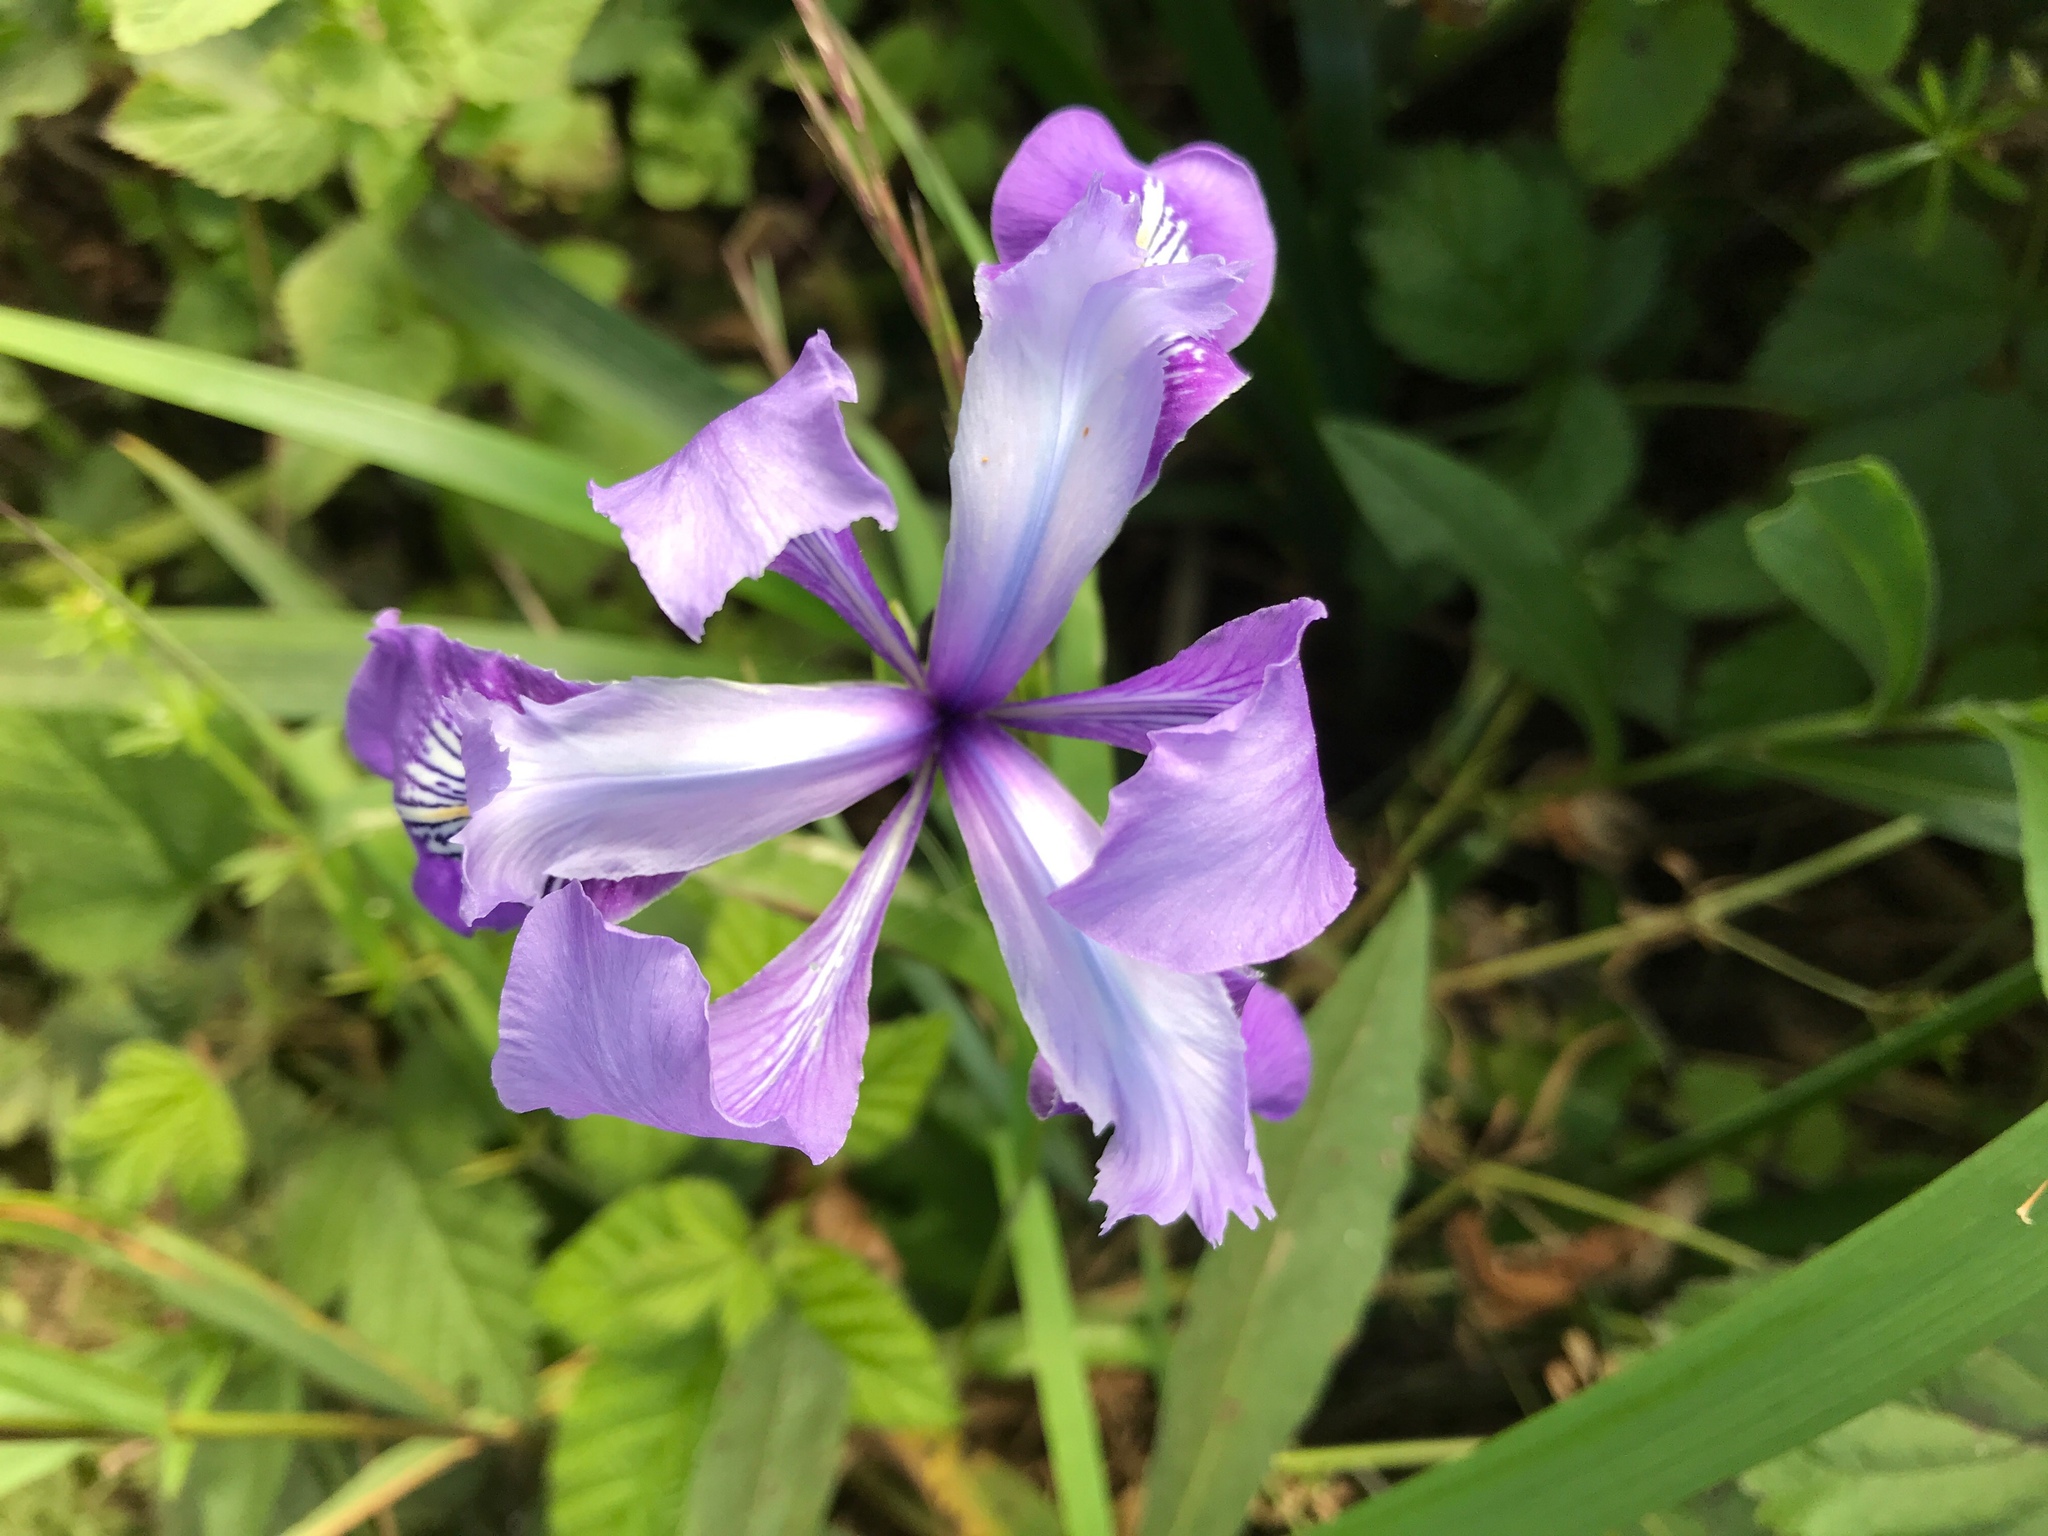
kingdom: Plantae
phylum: Tracheophyta
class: Liliopsida
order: Asparagales
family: Iridaceae
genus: Iris
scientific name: Iris douglasiana
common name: Marin iris
